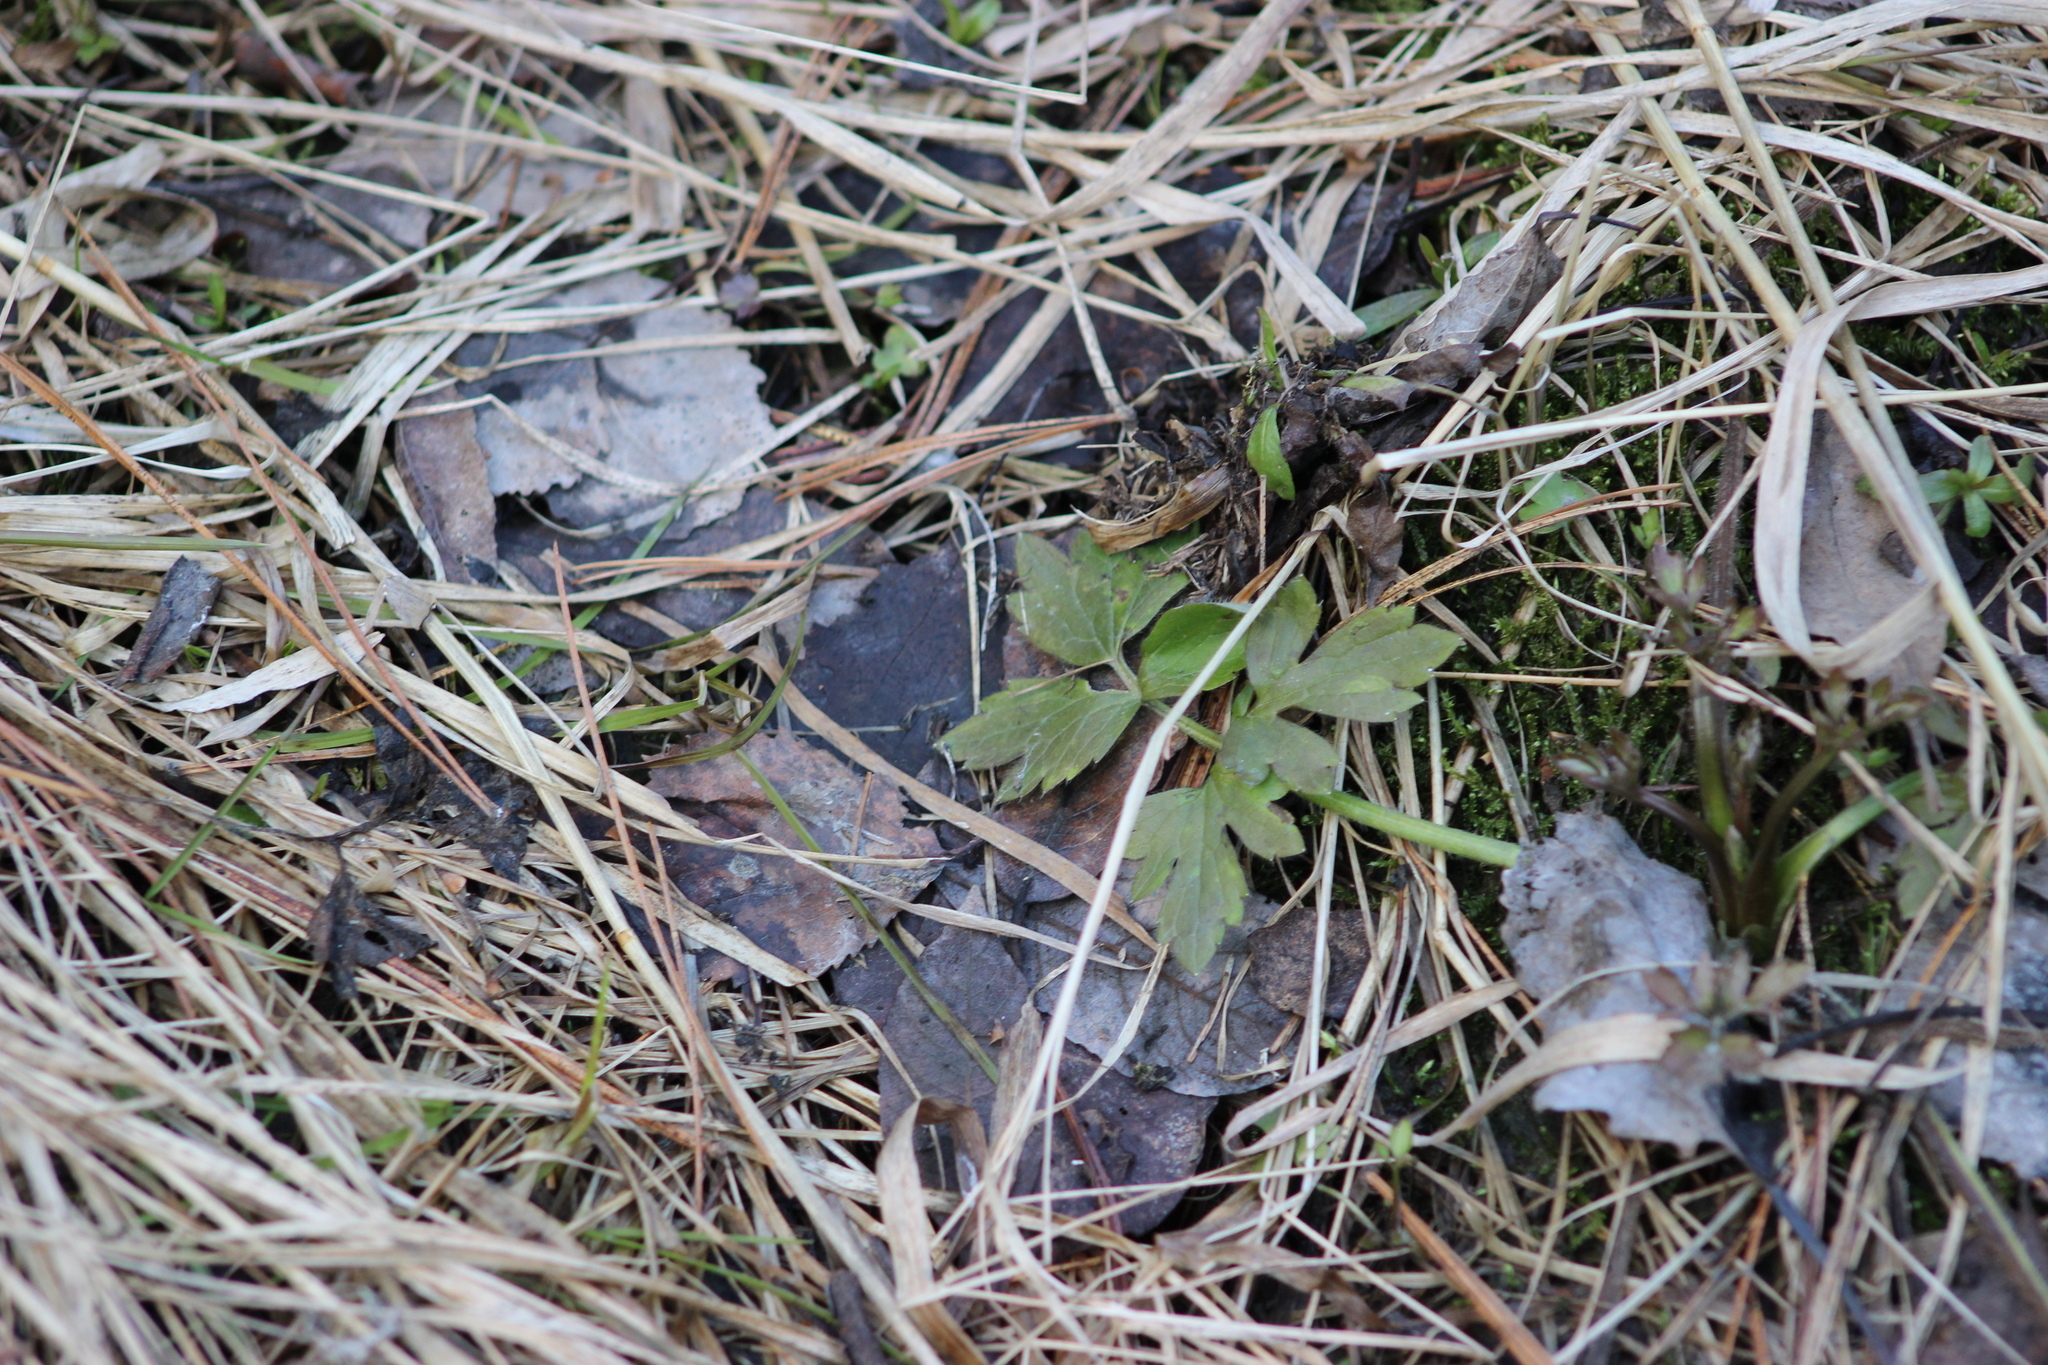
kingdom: Plantae
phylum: Tracheophyta
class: Magnoliopsida
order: Ranunculales
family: Ranunculaceae
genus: Ranunculus
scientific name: Ranunculus repens
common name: Creeping buttercup
